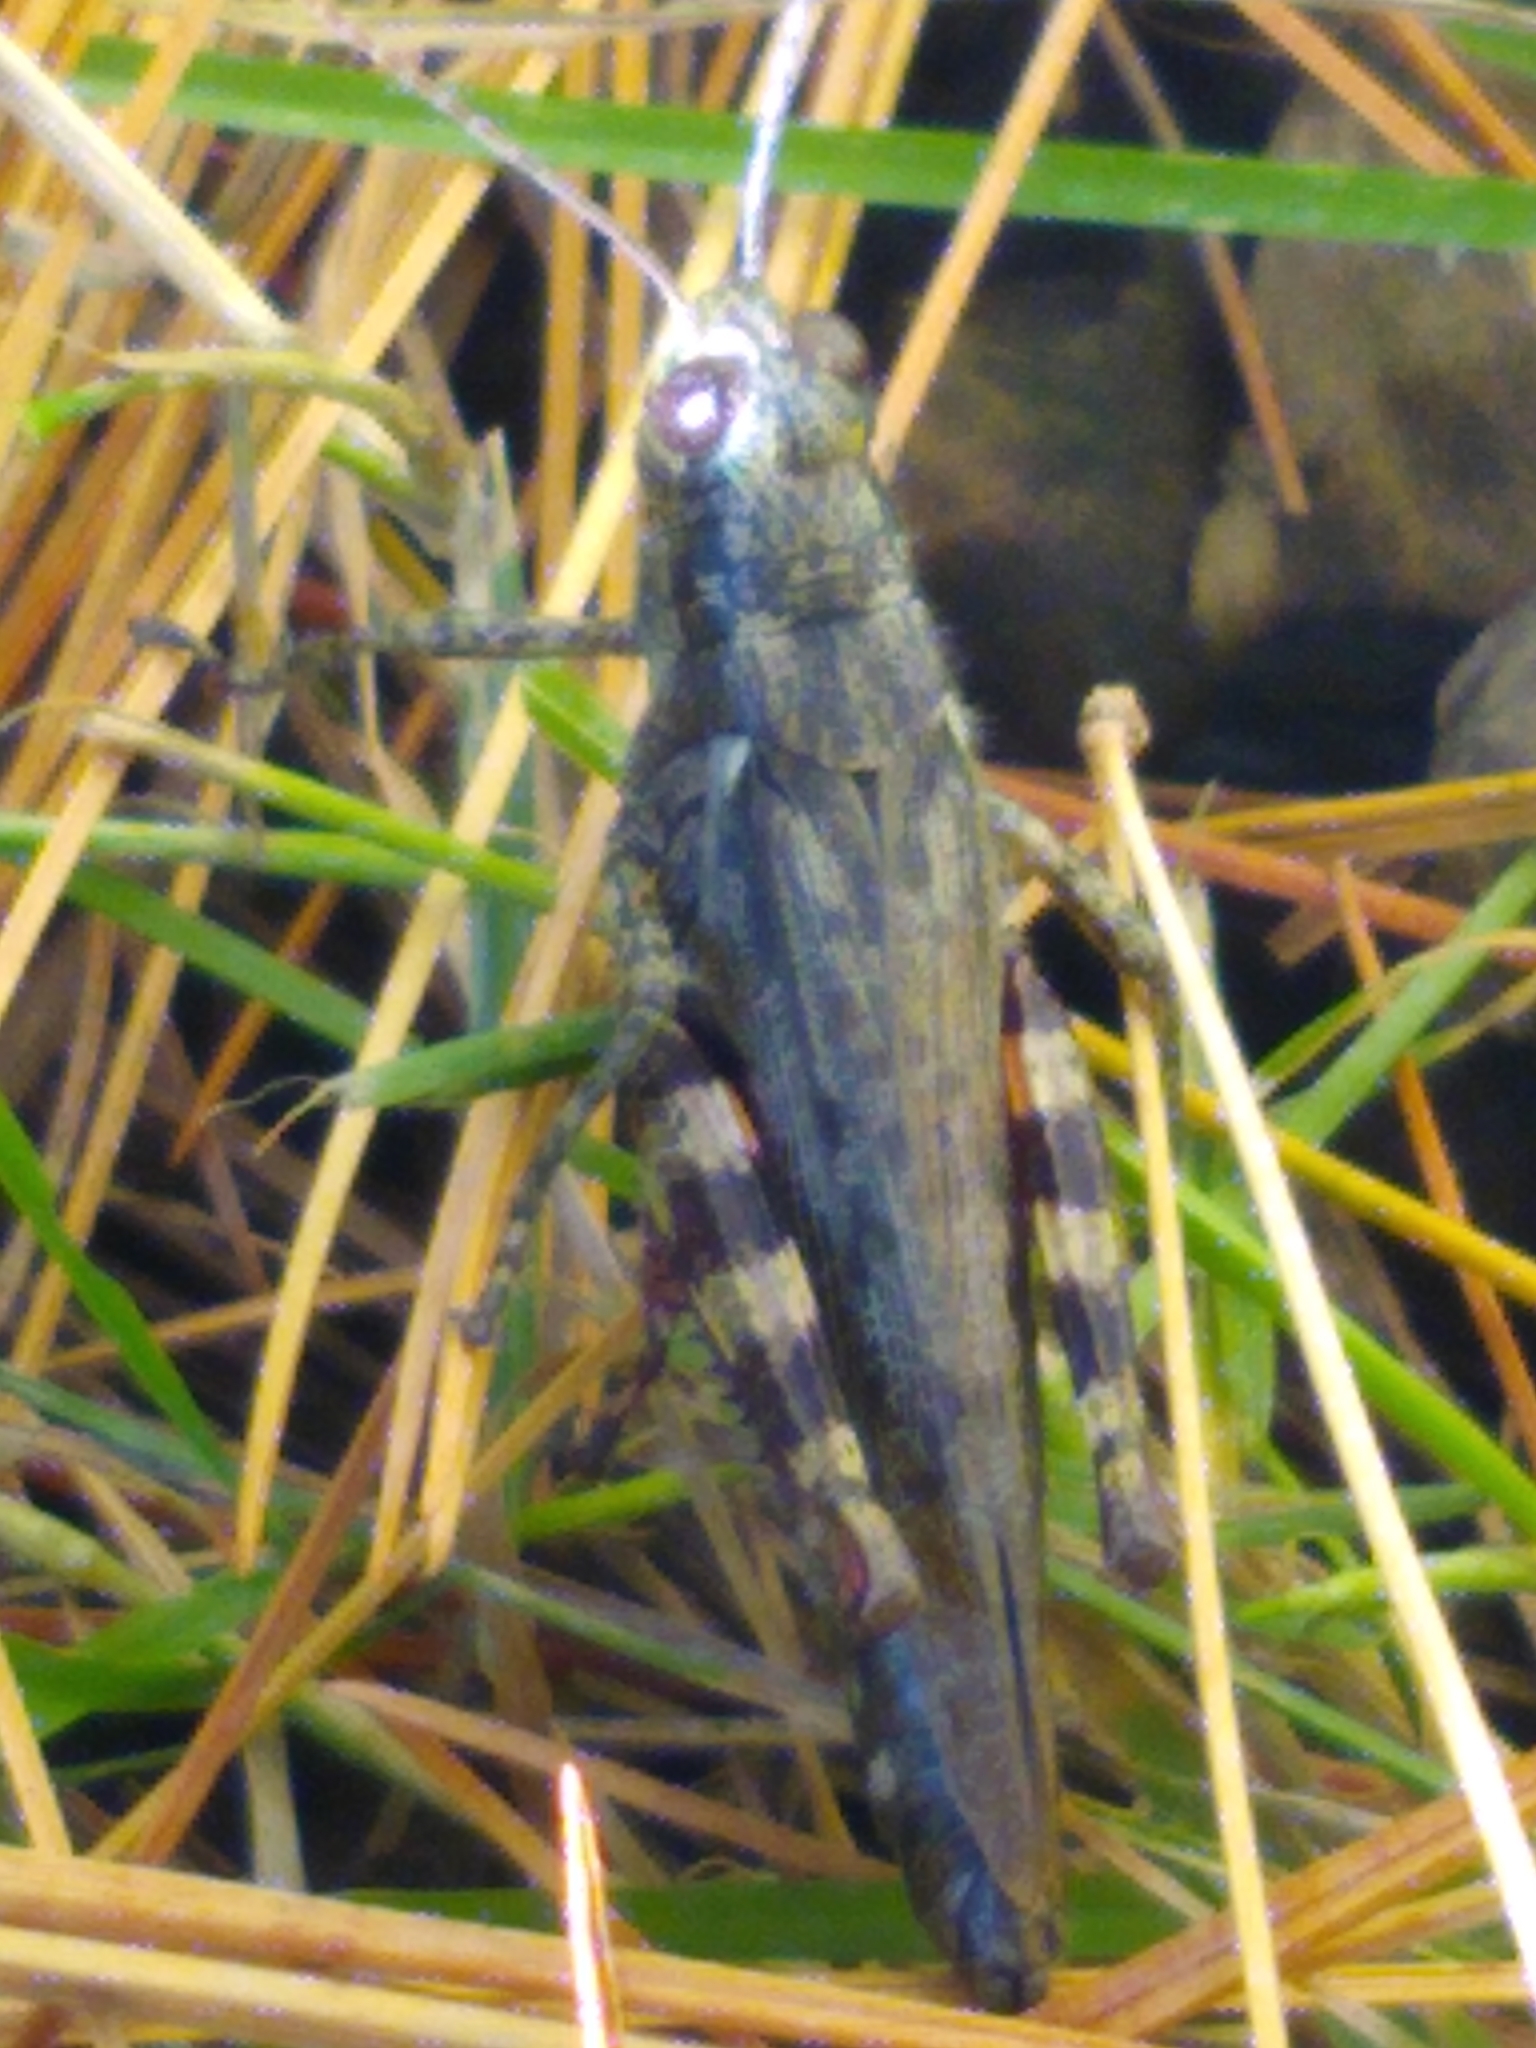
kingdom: Animalia
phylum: Arthropoda
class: Insecta
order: Orthoptera
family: Acrididae
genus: Melanoplus
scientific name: Melanoplus punctulatus
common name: Pine-tree spur-throat grasshopper
